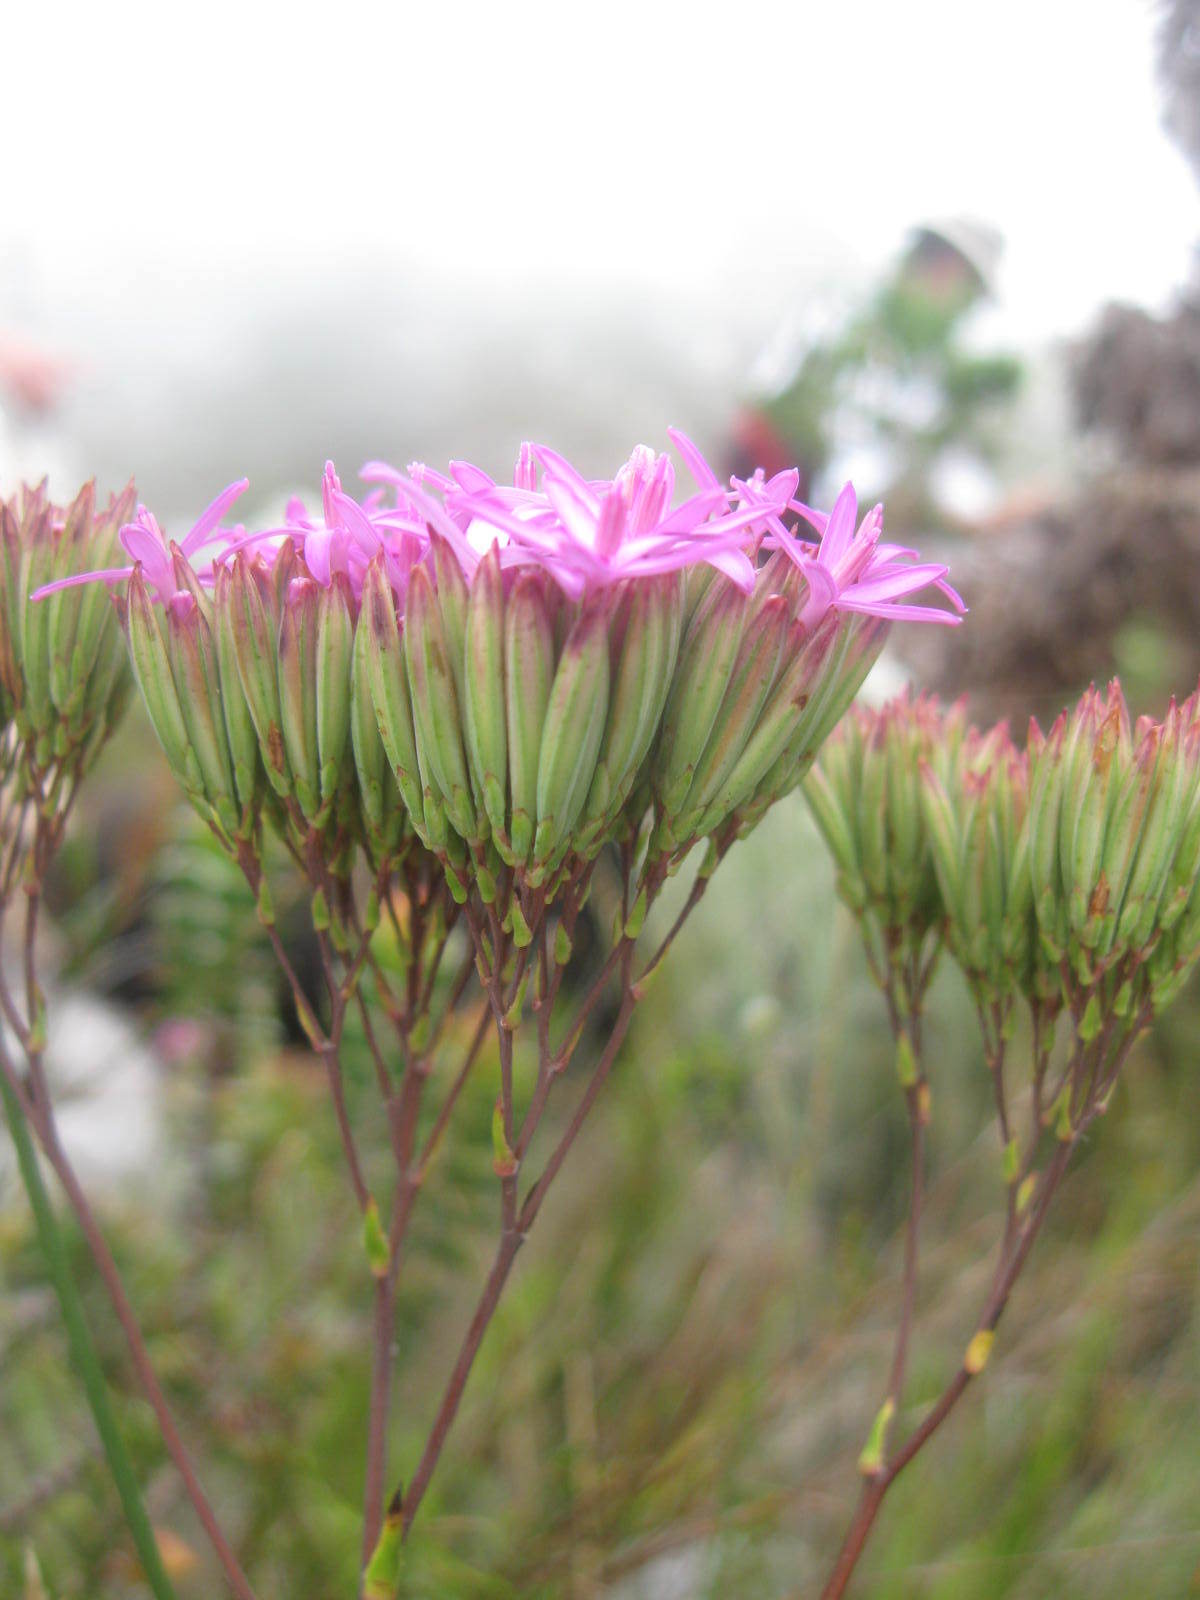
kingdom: Plantae
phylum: Tracheophyta
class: Magnoliopsida
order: Asterales
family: Asteraceae
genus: Corymbium
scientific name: Corymbium glabrum
